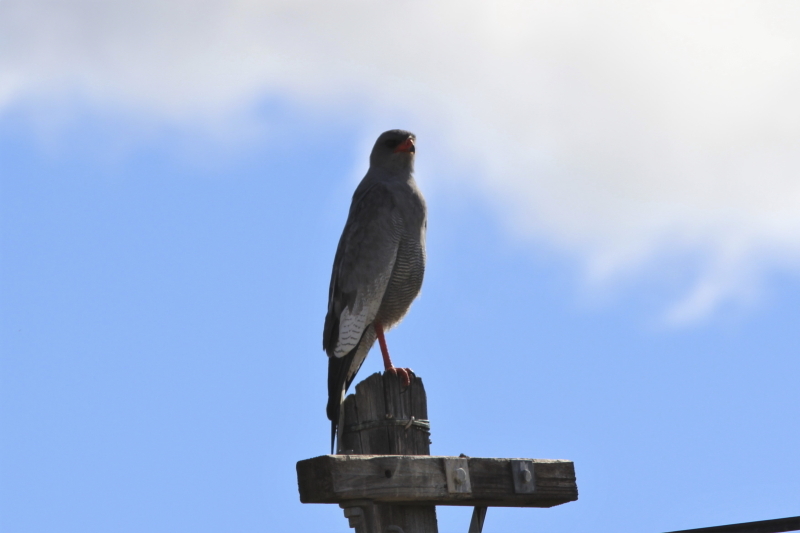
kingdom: Animalia
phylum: Chordata
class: Aves
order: Accipitriformes
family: Accipitridae
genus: Melierax
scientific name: Melierax canorus
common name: Pale chanting-goshawk
